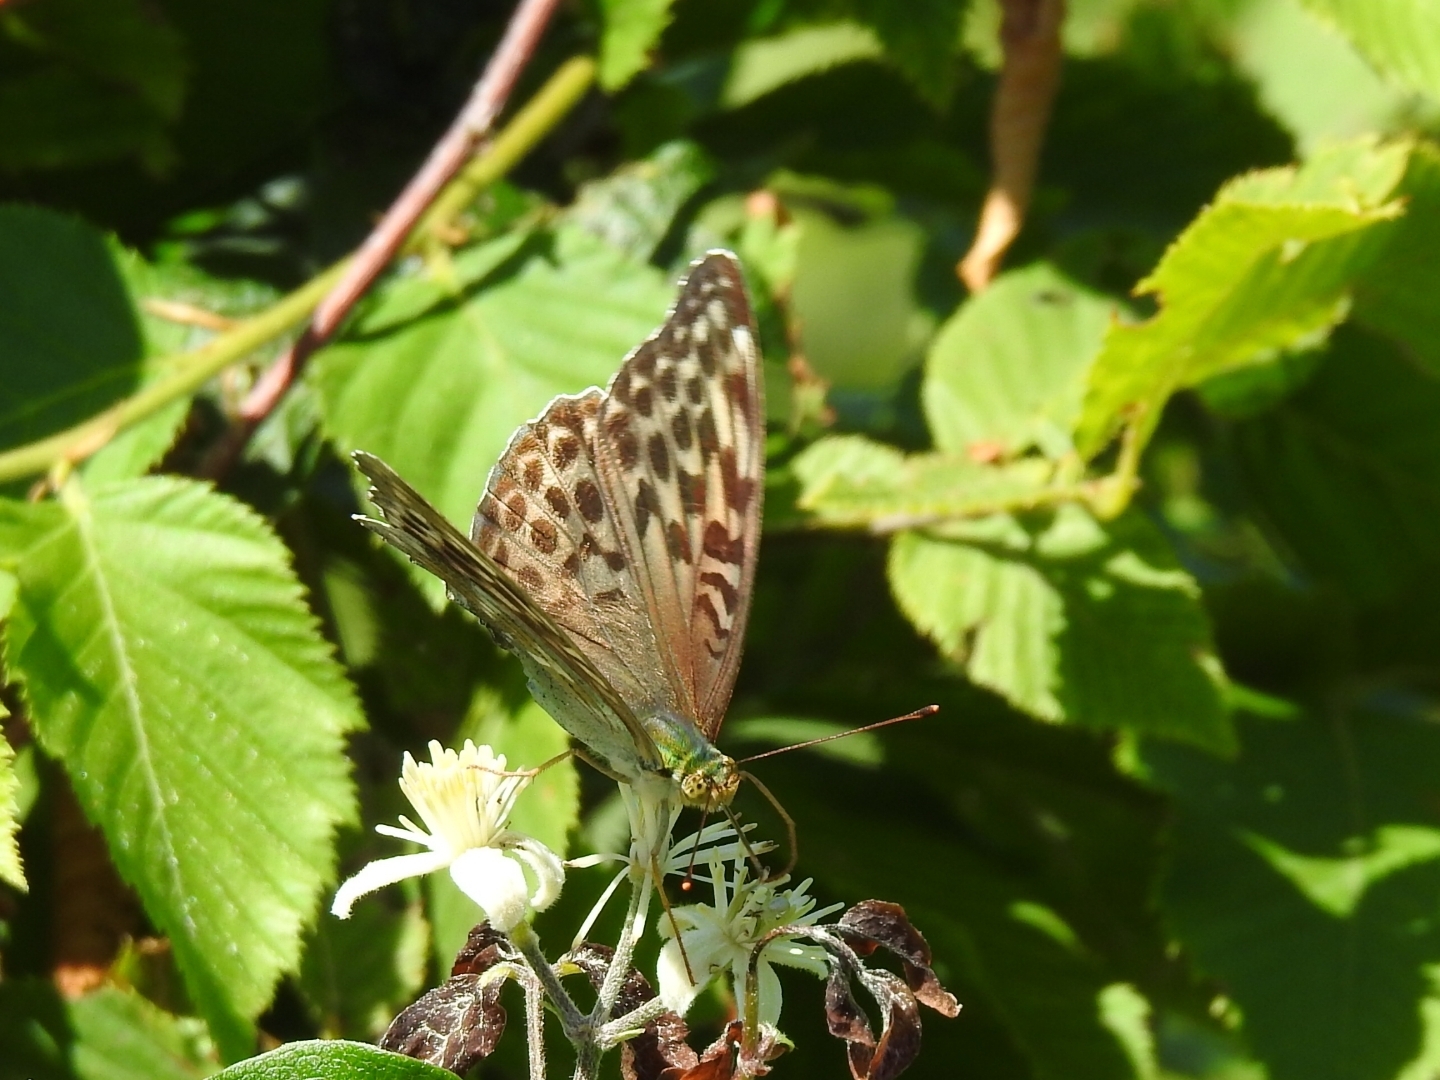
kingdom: Animalia
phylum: Arthropoda
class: Insecta
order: Lepidoptera
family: Nymphalidae
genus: Argynnis
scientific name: Argynnis paphia
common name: Silver-washed fritillary
